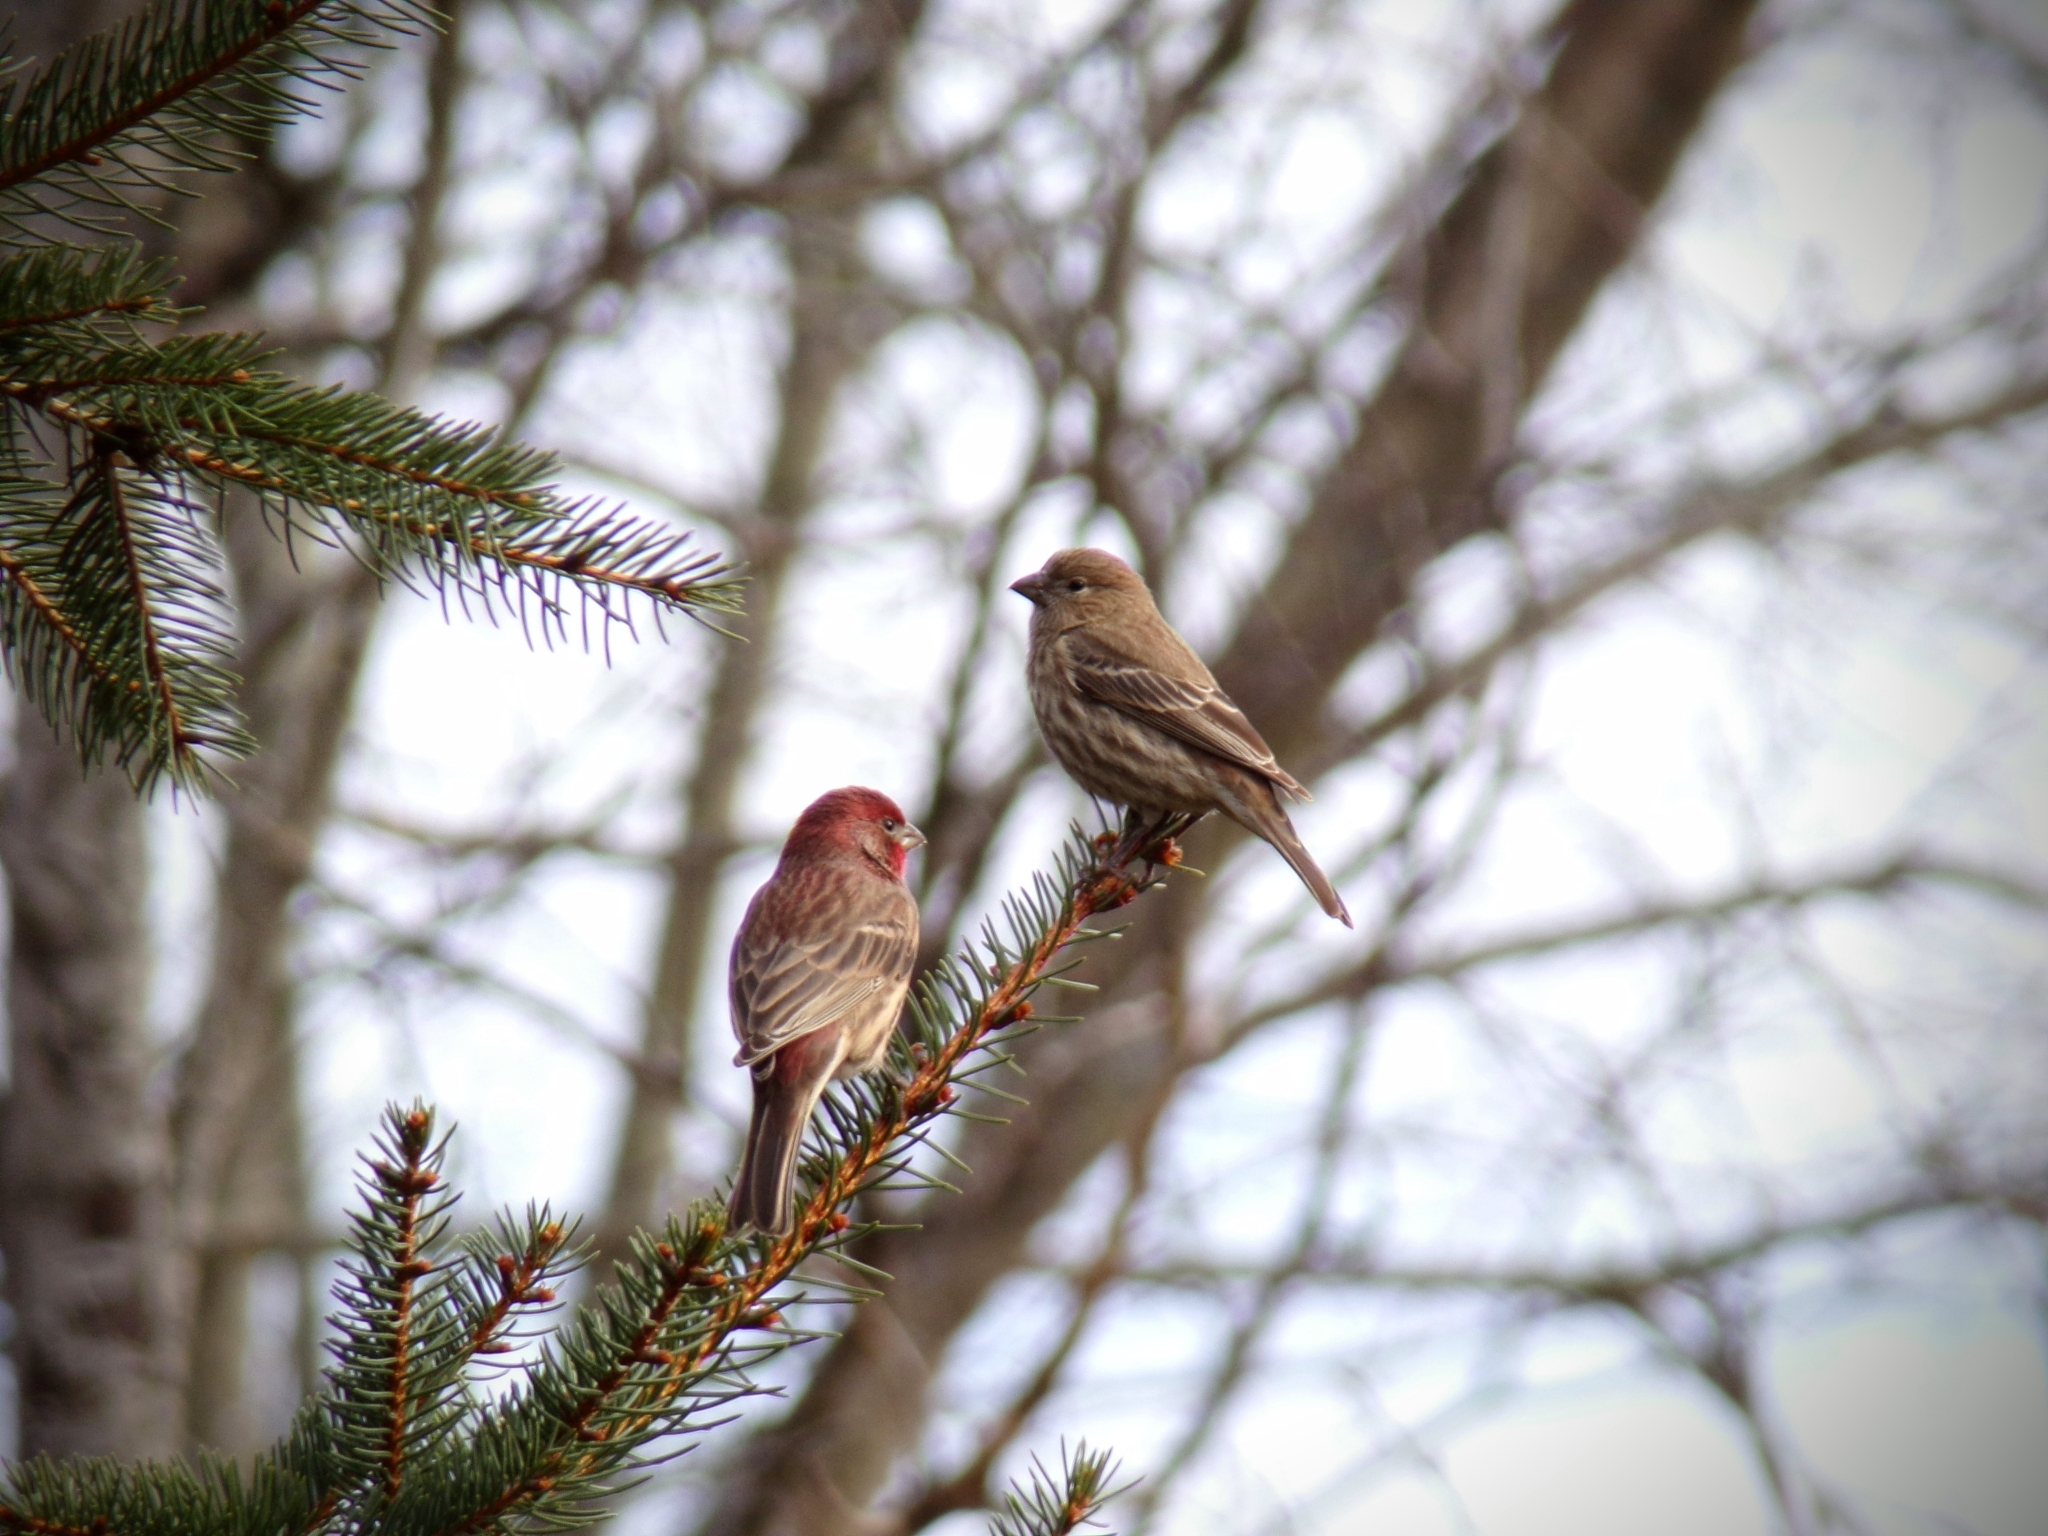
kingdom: Animalia
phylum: Chordata
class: Aves
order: Passeriformes
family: Fringillidae
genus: Haemorhous
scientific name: Haemorhous mexicanus
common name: House finch
